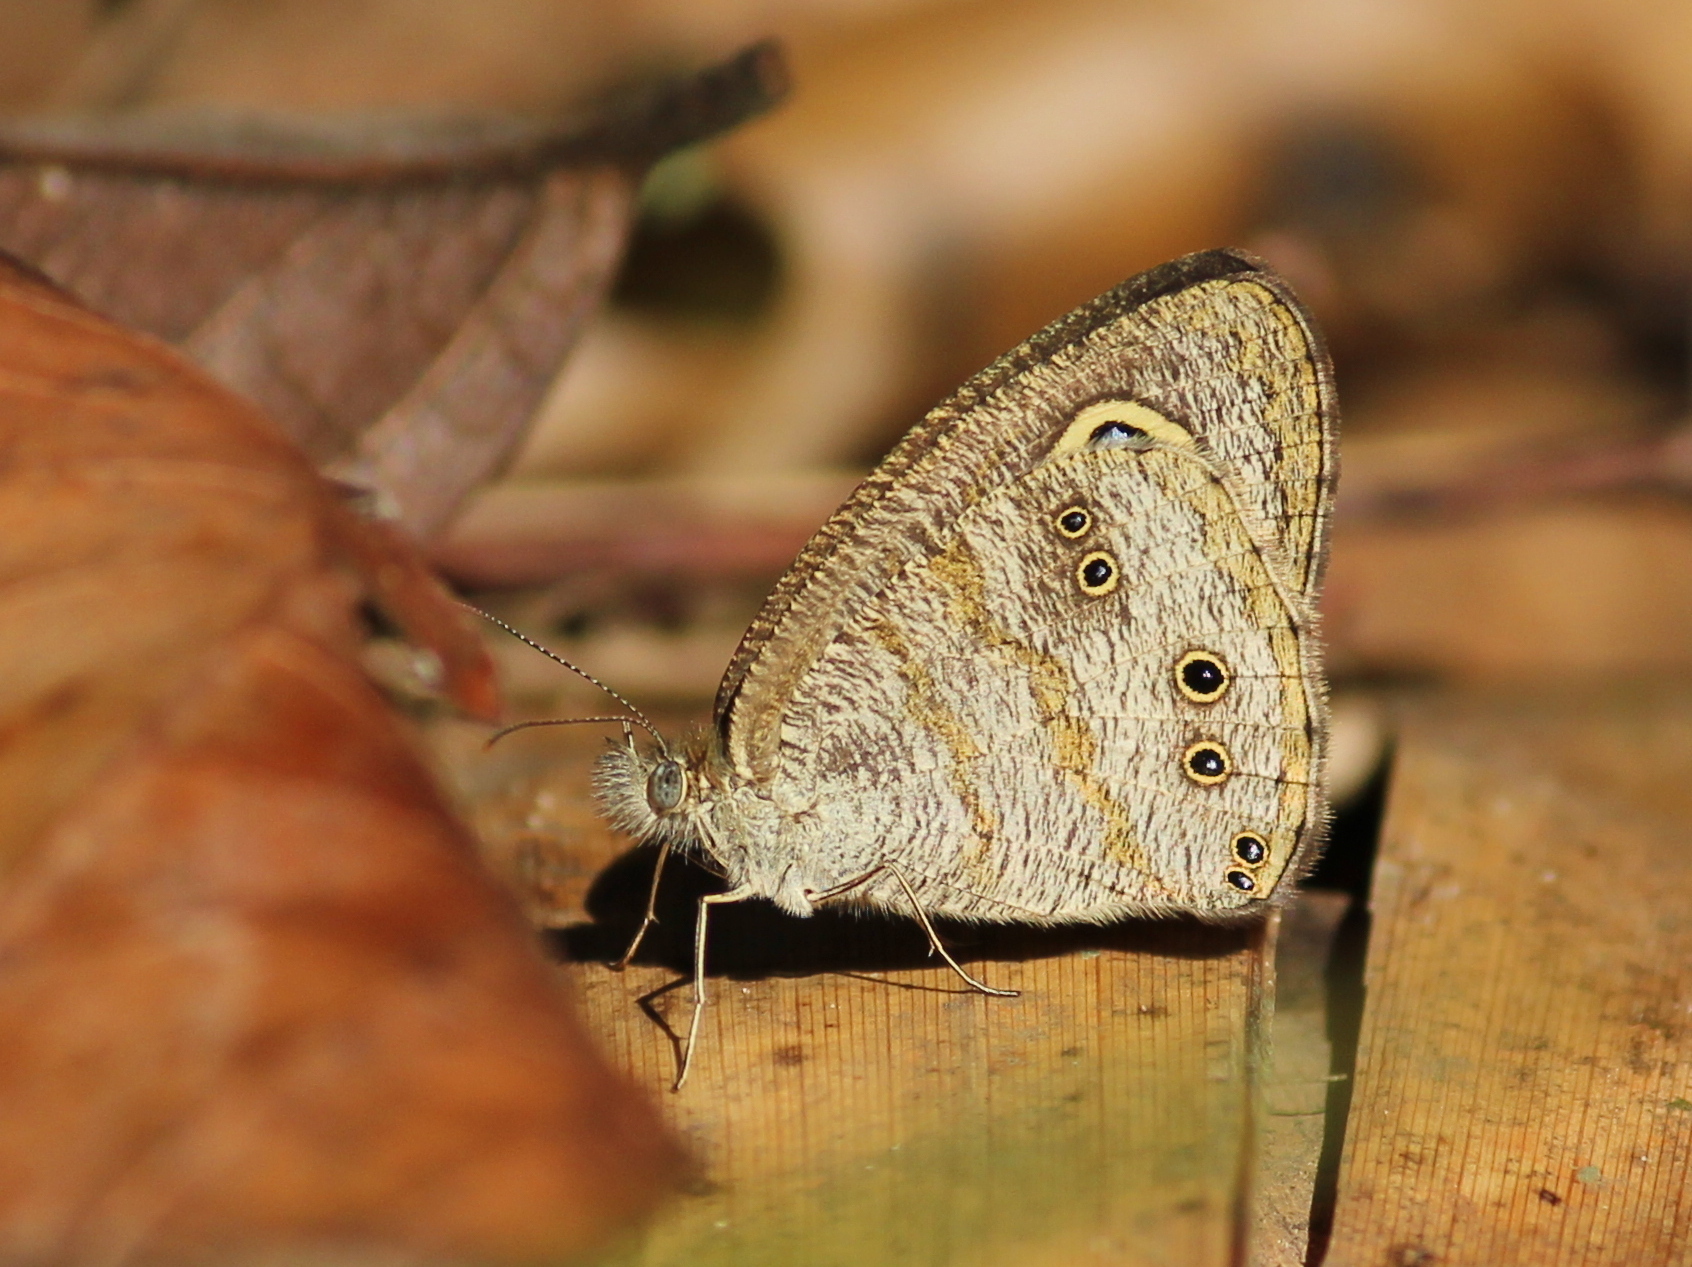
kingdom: Animalia
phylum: Arthropoda
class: Insecta
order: Lepidoptera
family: Nymphalidae
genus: Ypthima
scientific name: Ypthima baldus
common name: Common five-ring
